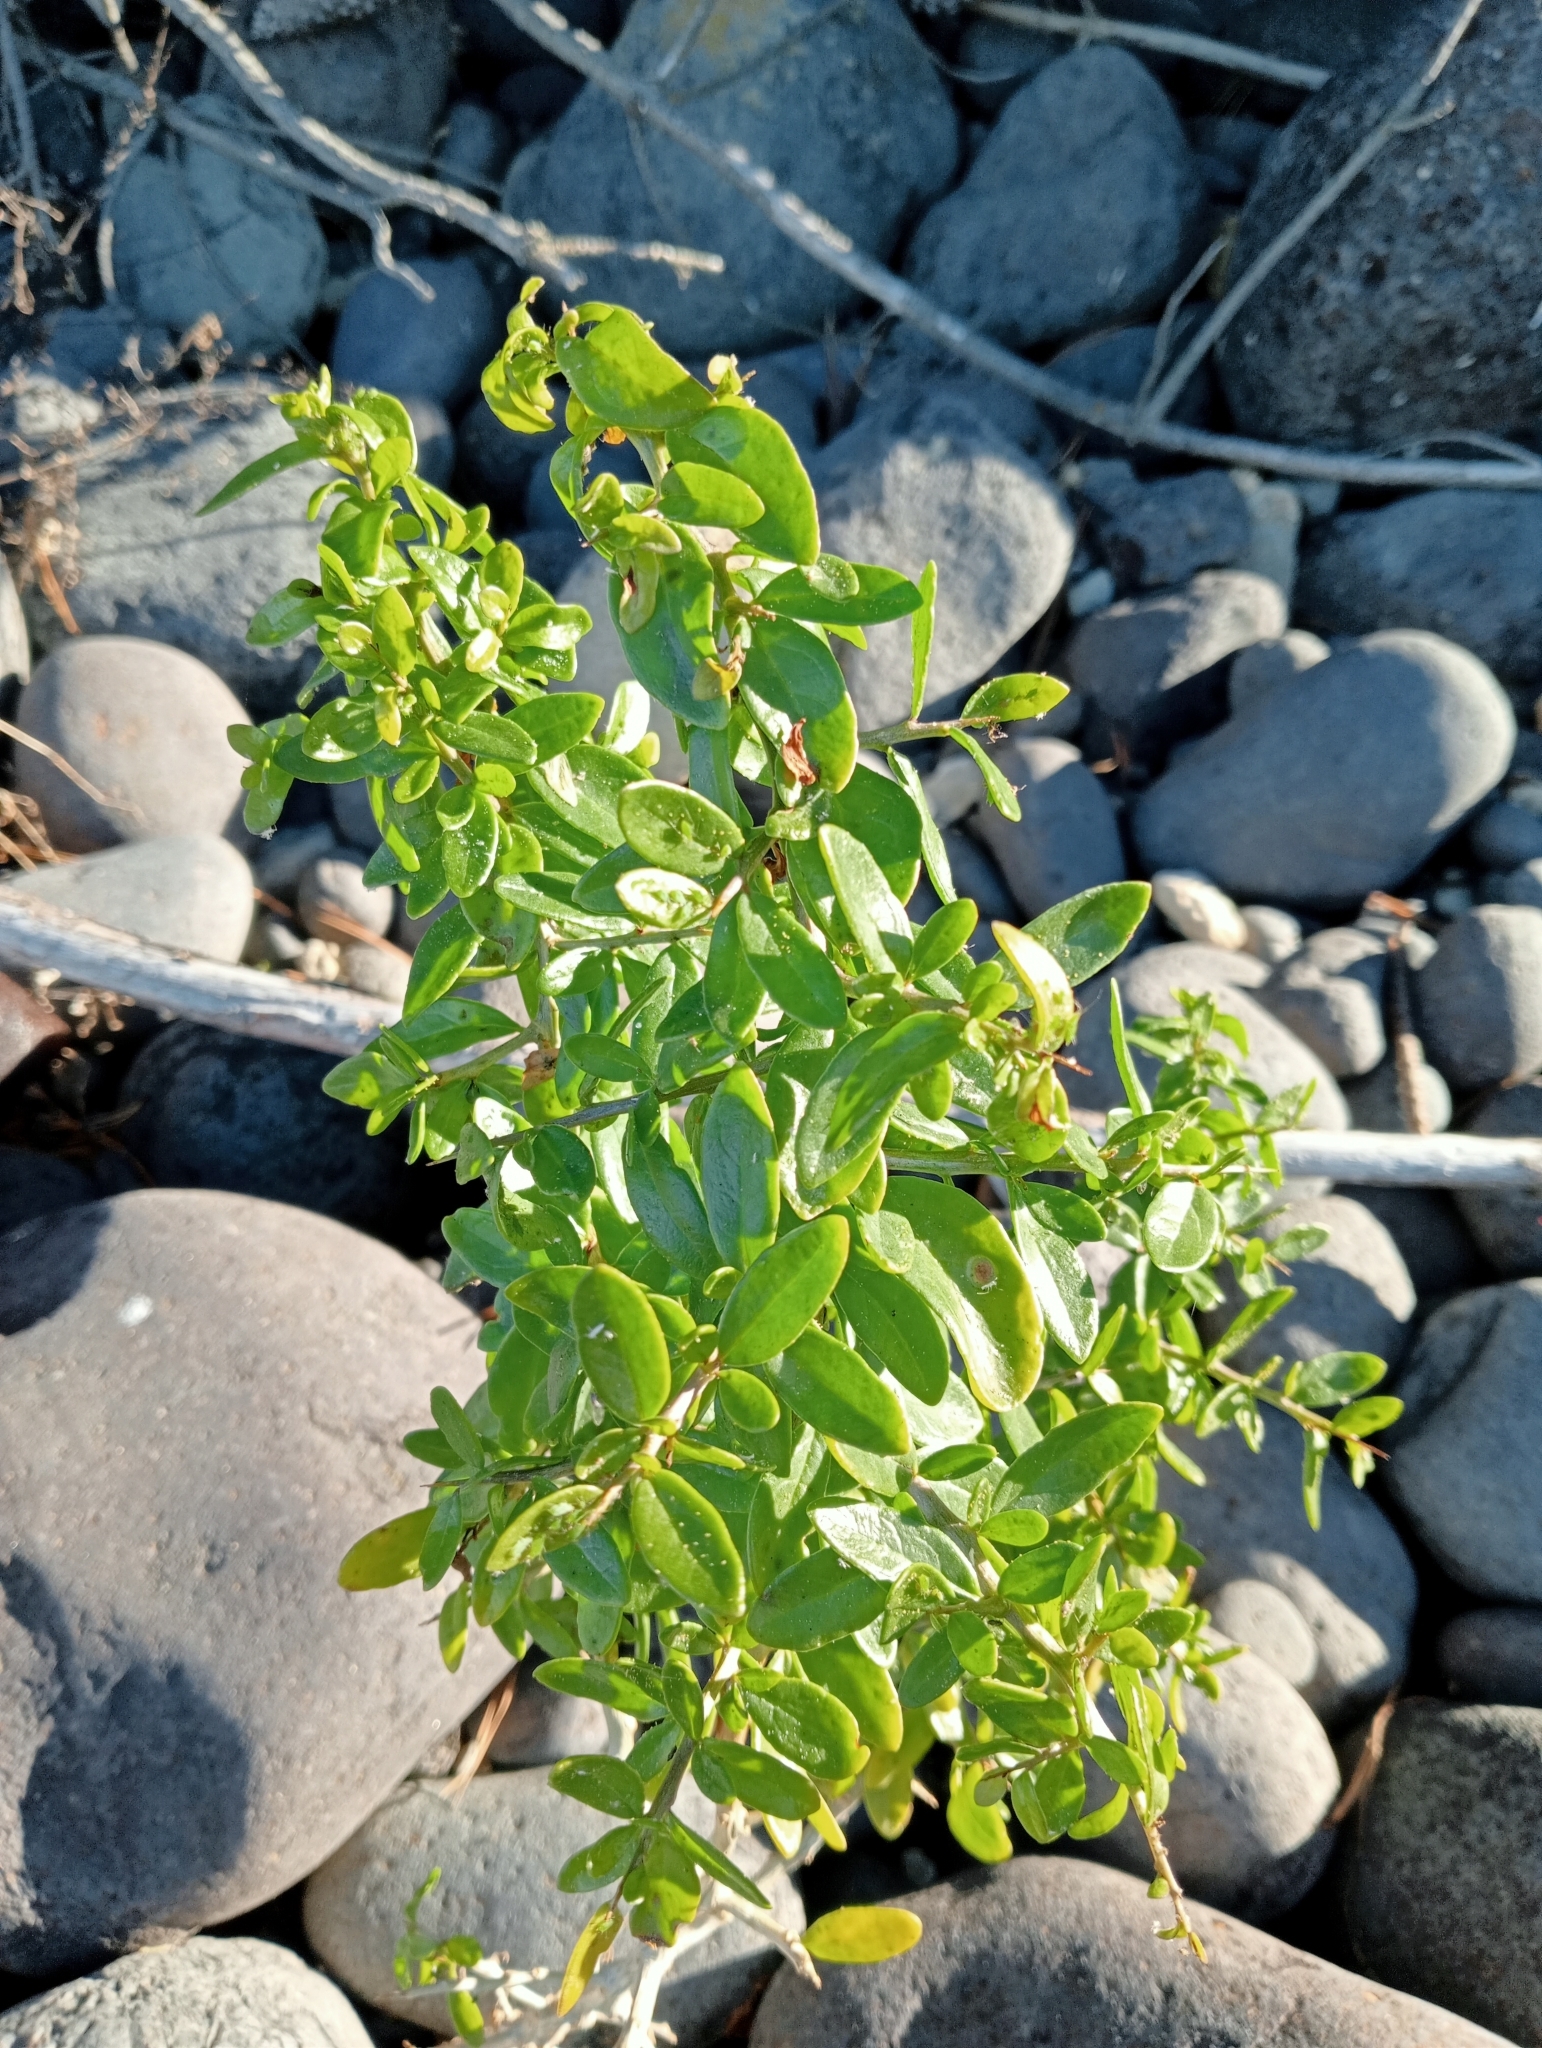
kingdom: Plantae
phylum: Tracheophyta
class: Magnoliopsida
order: Solanales
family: Solanaceae
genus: Lycium
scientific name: Lycium ferocissimum
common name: African boxthorn
